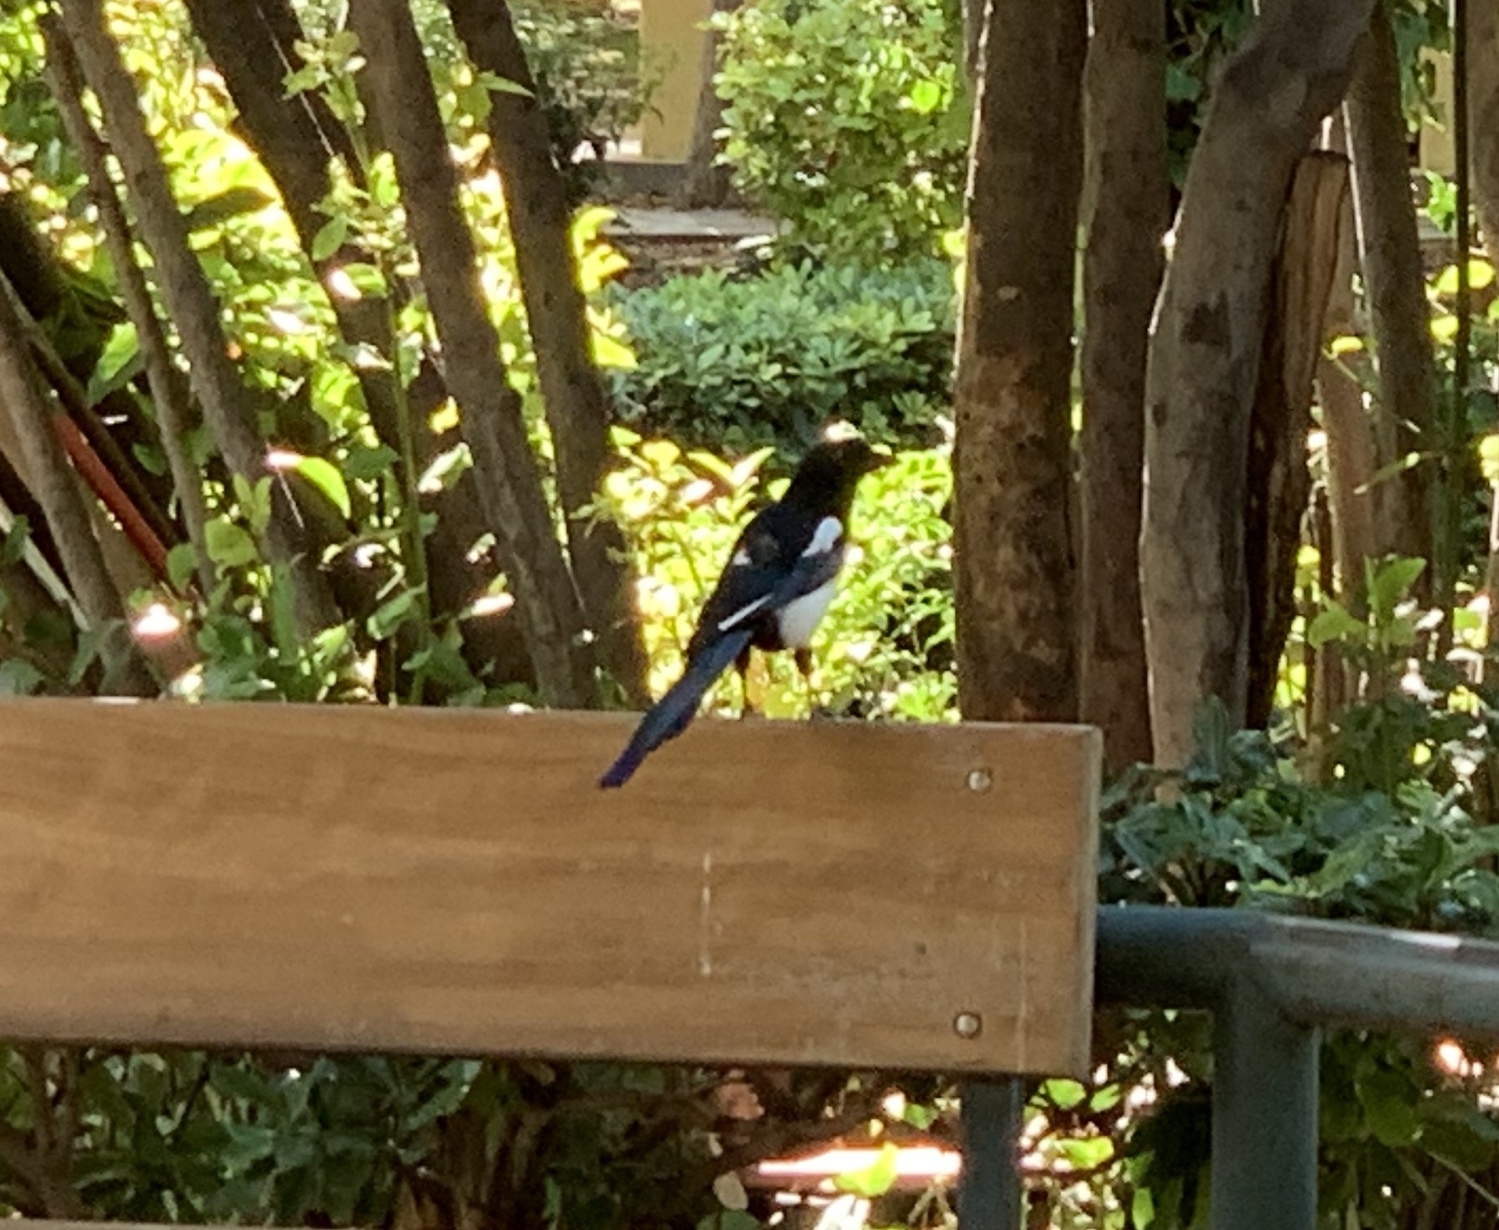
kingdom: Animalia
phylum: Chordata
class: Aves
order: Passeriformes
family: Corvidae
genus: Pica
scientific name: Pica pica
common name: Eurasian magpie
